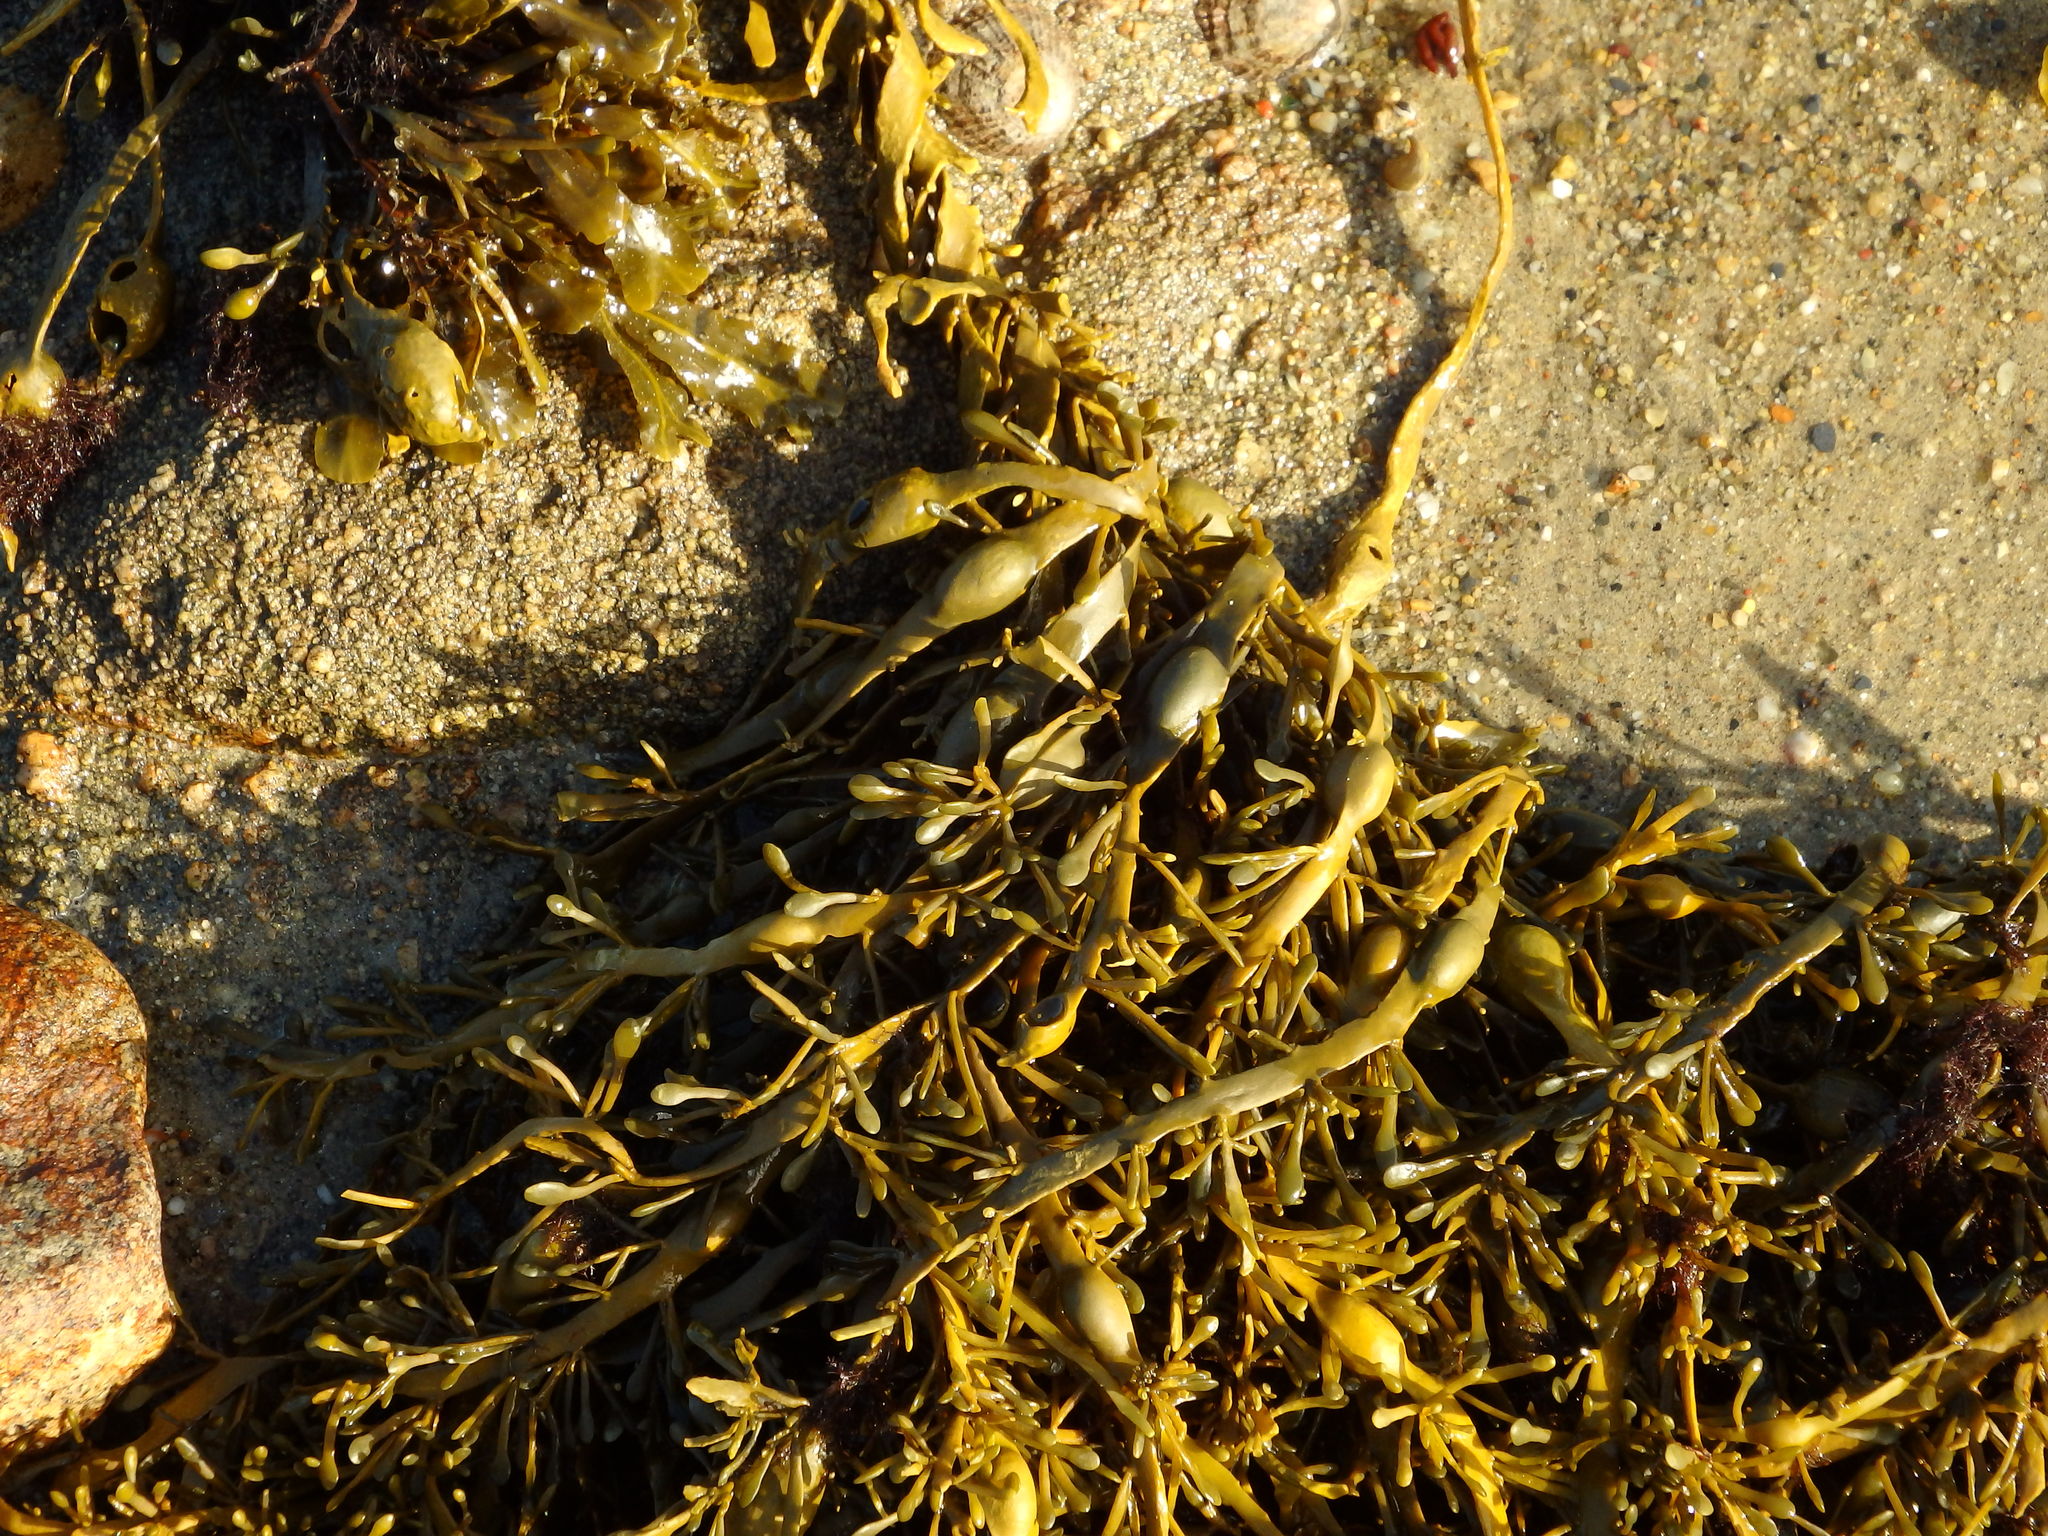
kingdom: Chromista
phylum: Ochrophyta
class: Phaeophyceae
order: Fucales
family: Fucaceae
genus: Ascophyllum
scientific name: Ascophyllum nodosum
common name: Knotted wrack
